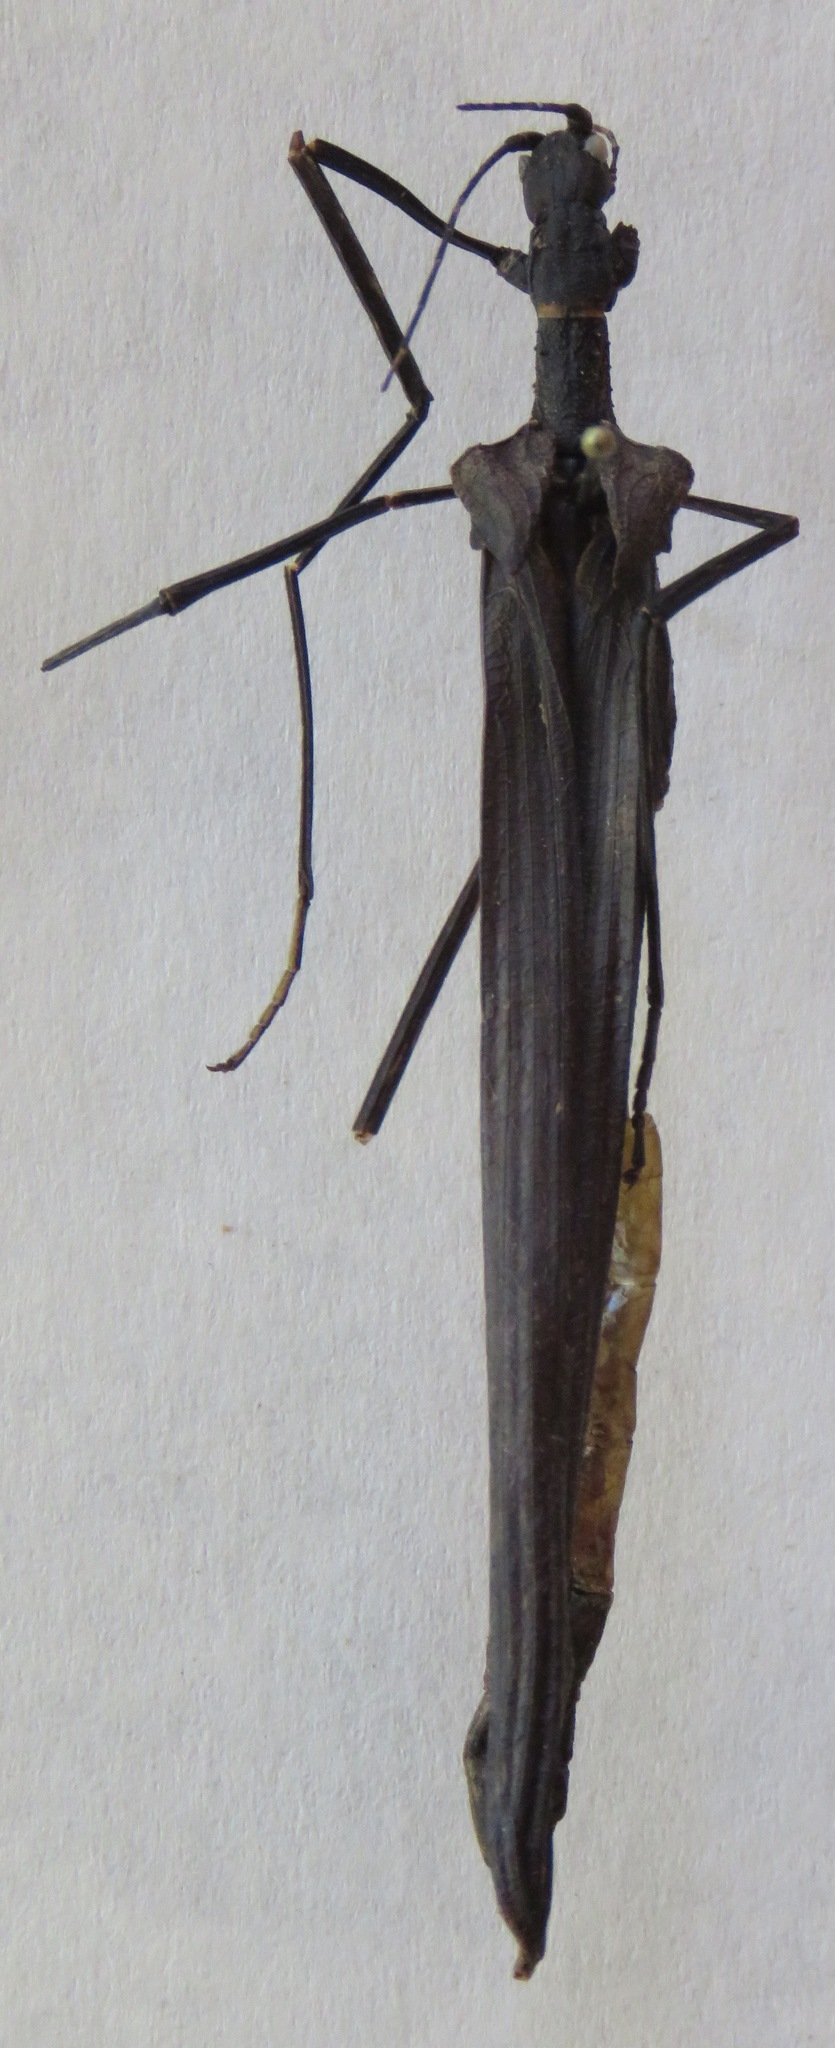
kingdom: Animalia
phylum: Arthropoda
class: Insecta
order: Phasmida
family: Pseudophasmatidae
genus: Pseudophasma
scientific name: Pseudophasma unicolor
